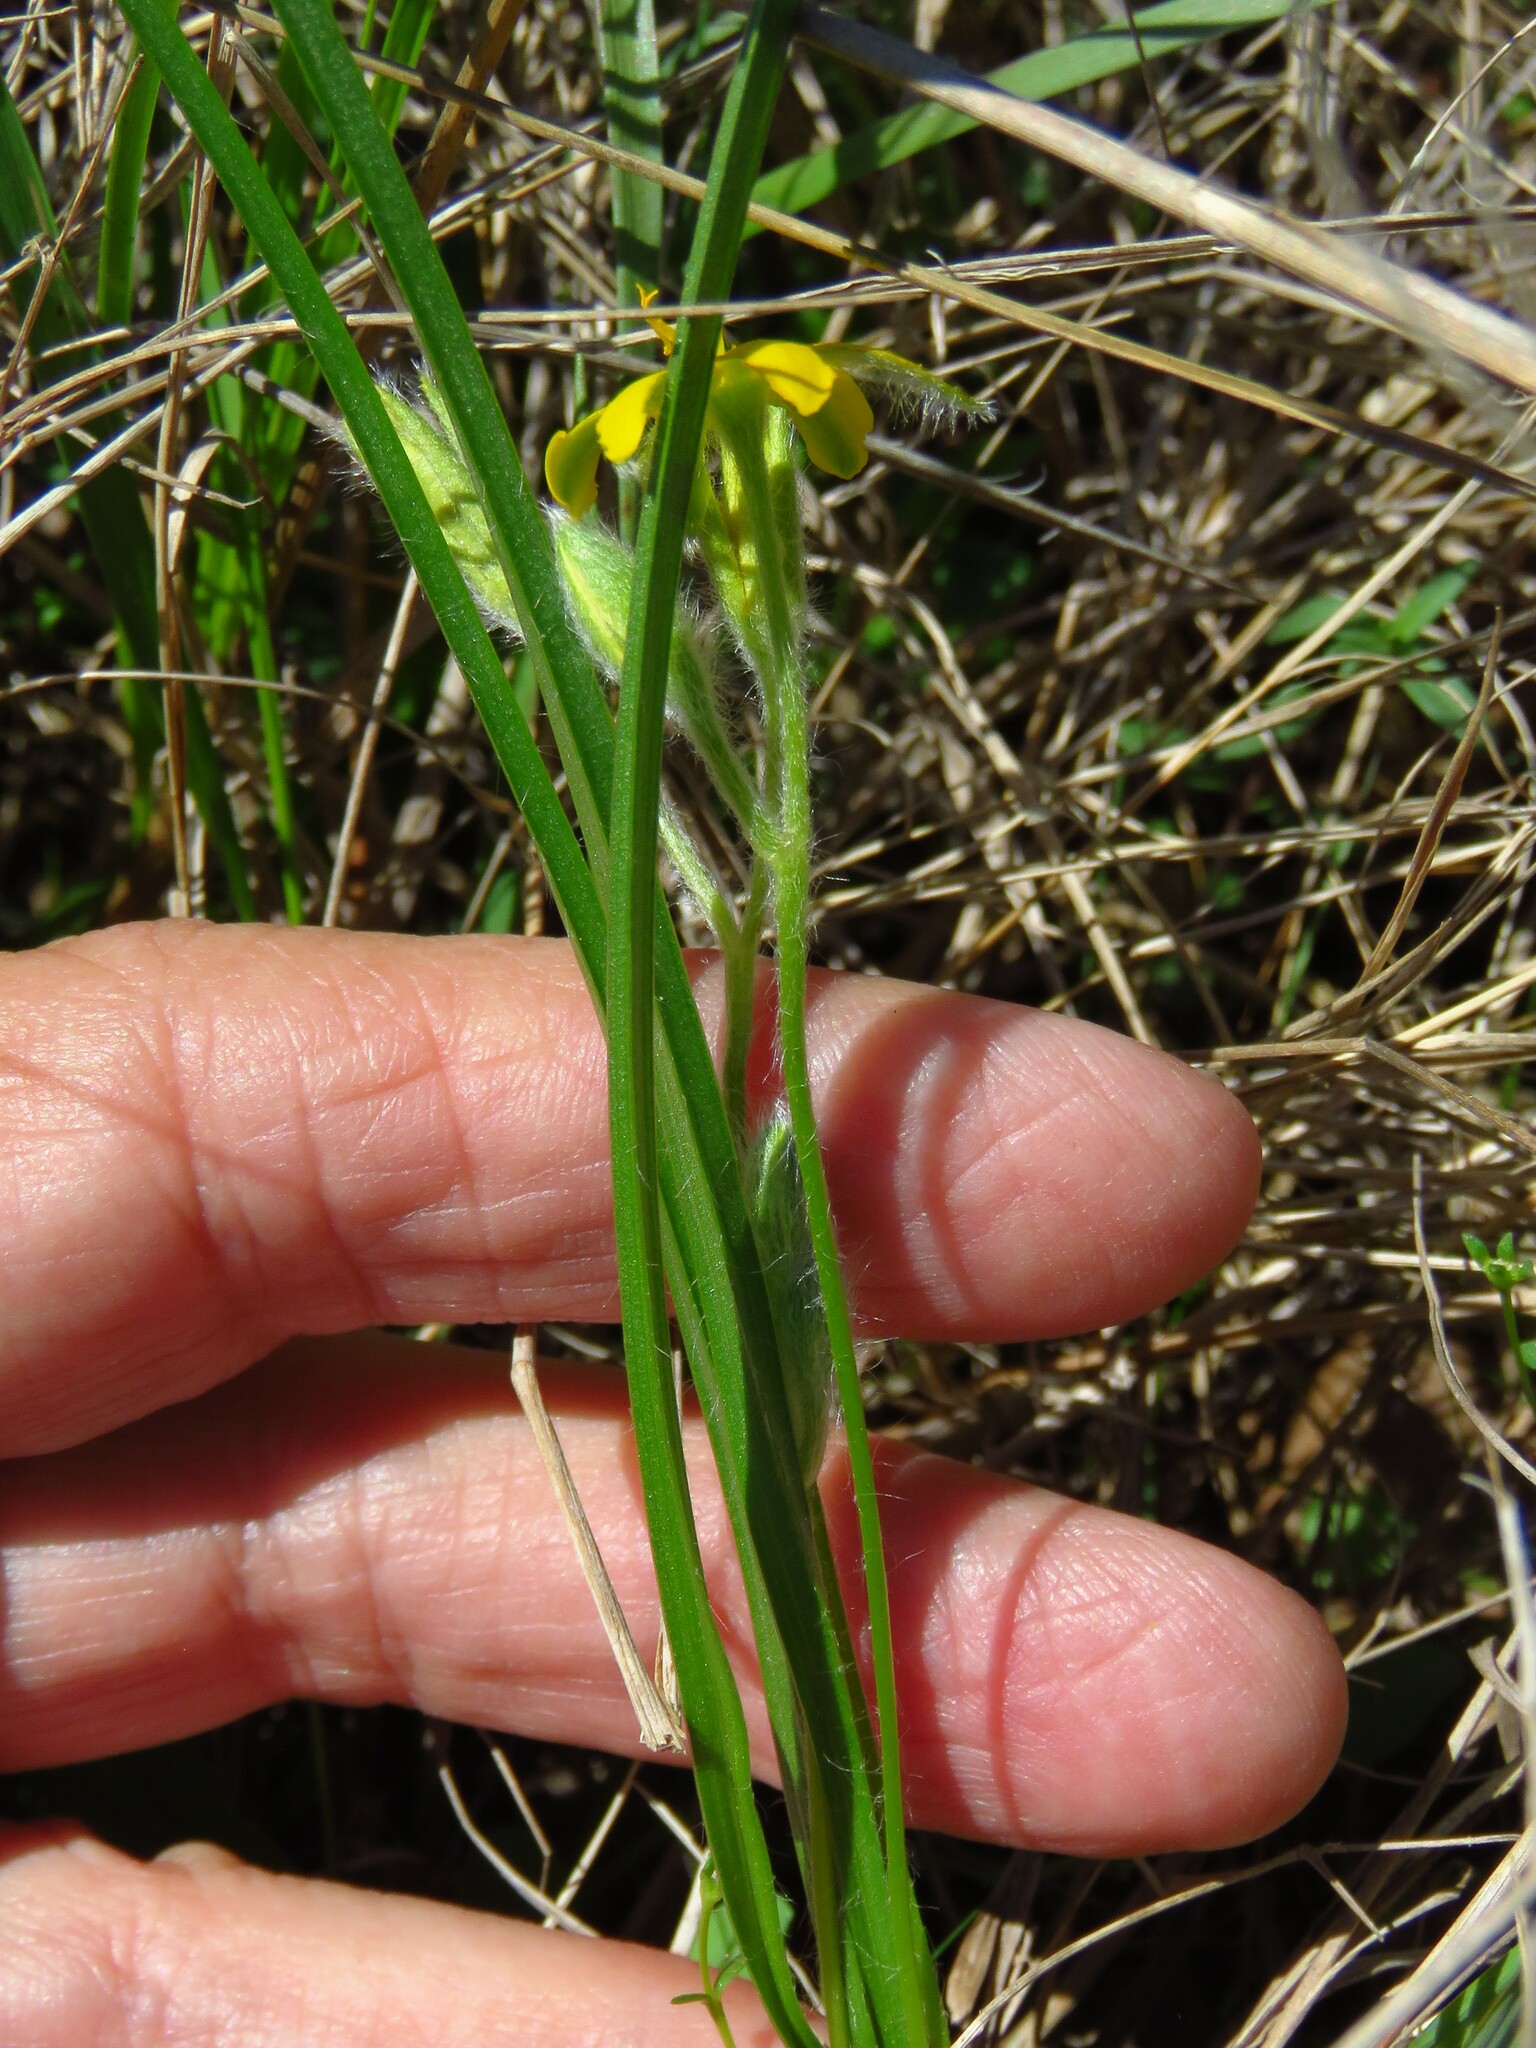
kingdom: Plantae
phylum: Tracheophyta
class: Liliopsida
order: Asparagales
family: Hypoxidaceae
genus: Hypoxis
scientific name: Hypoxis hirsuta
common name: Common goldstar
